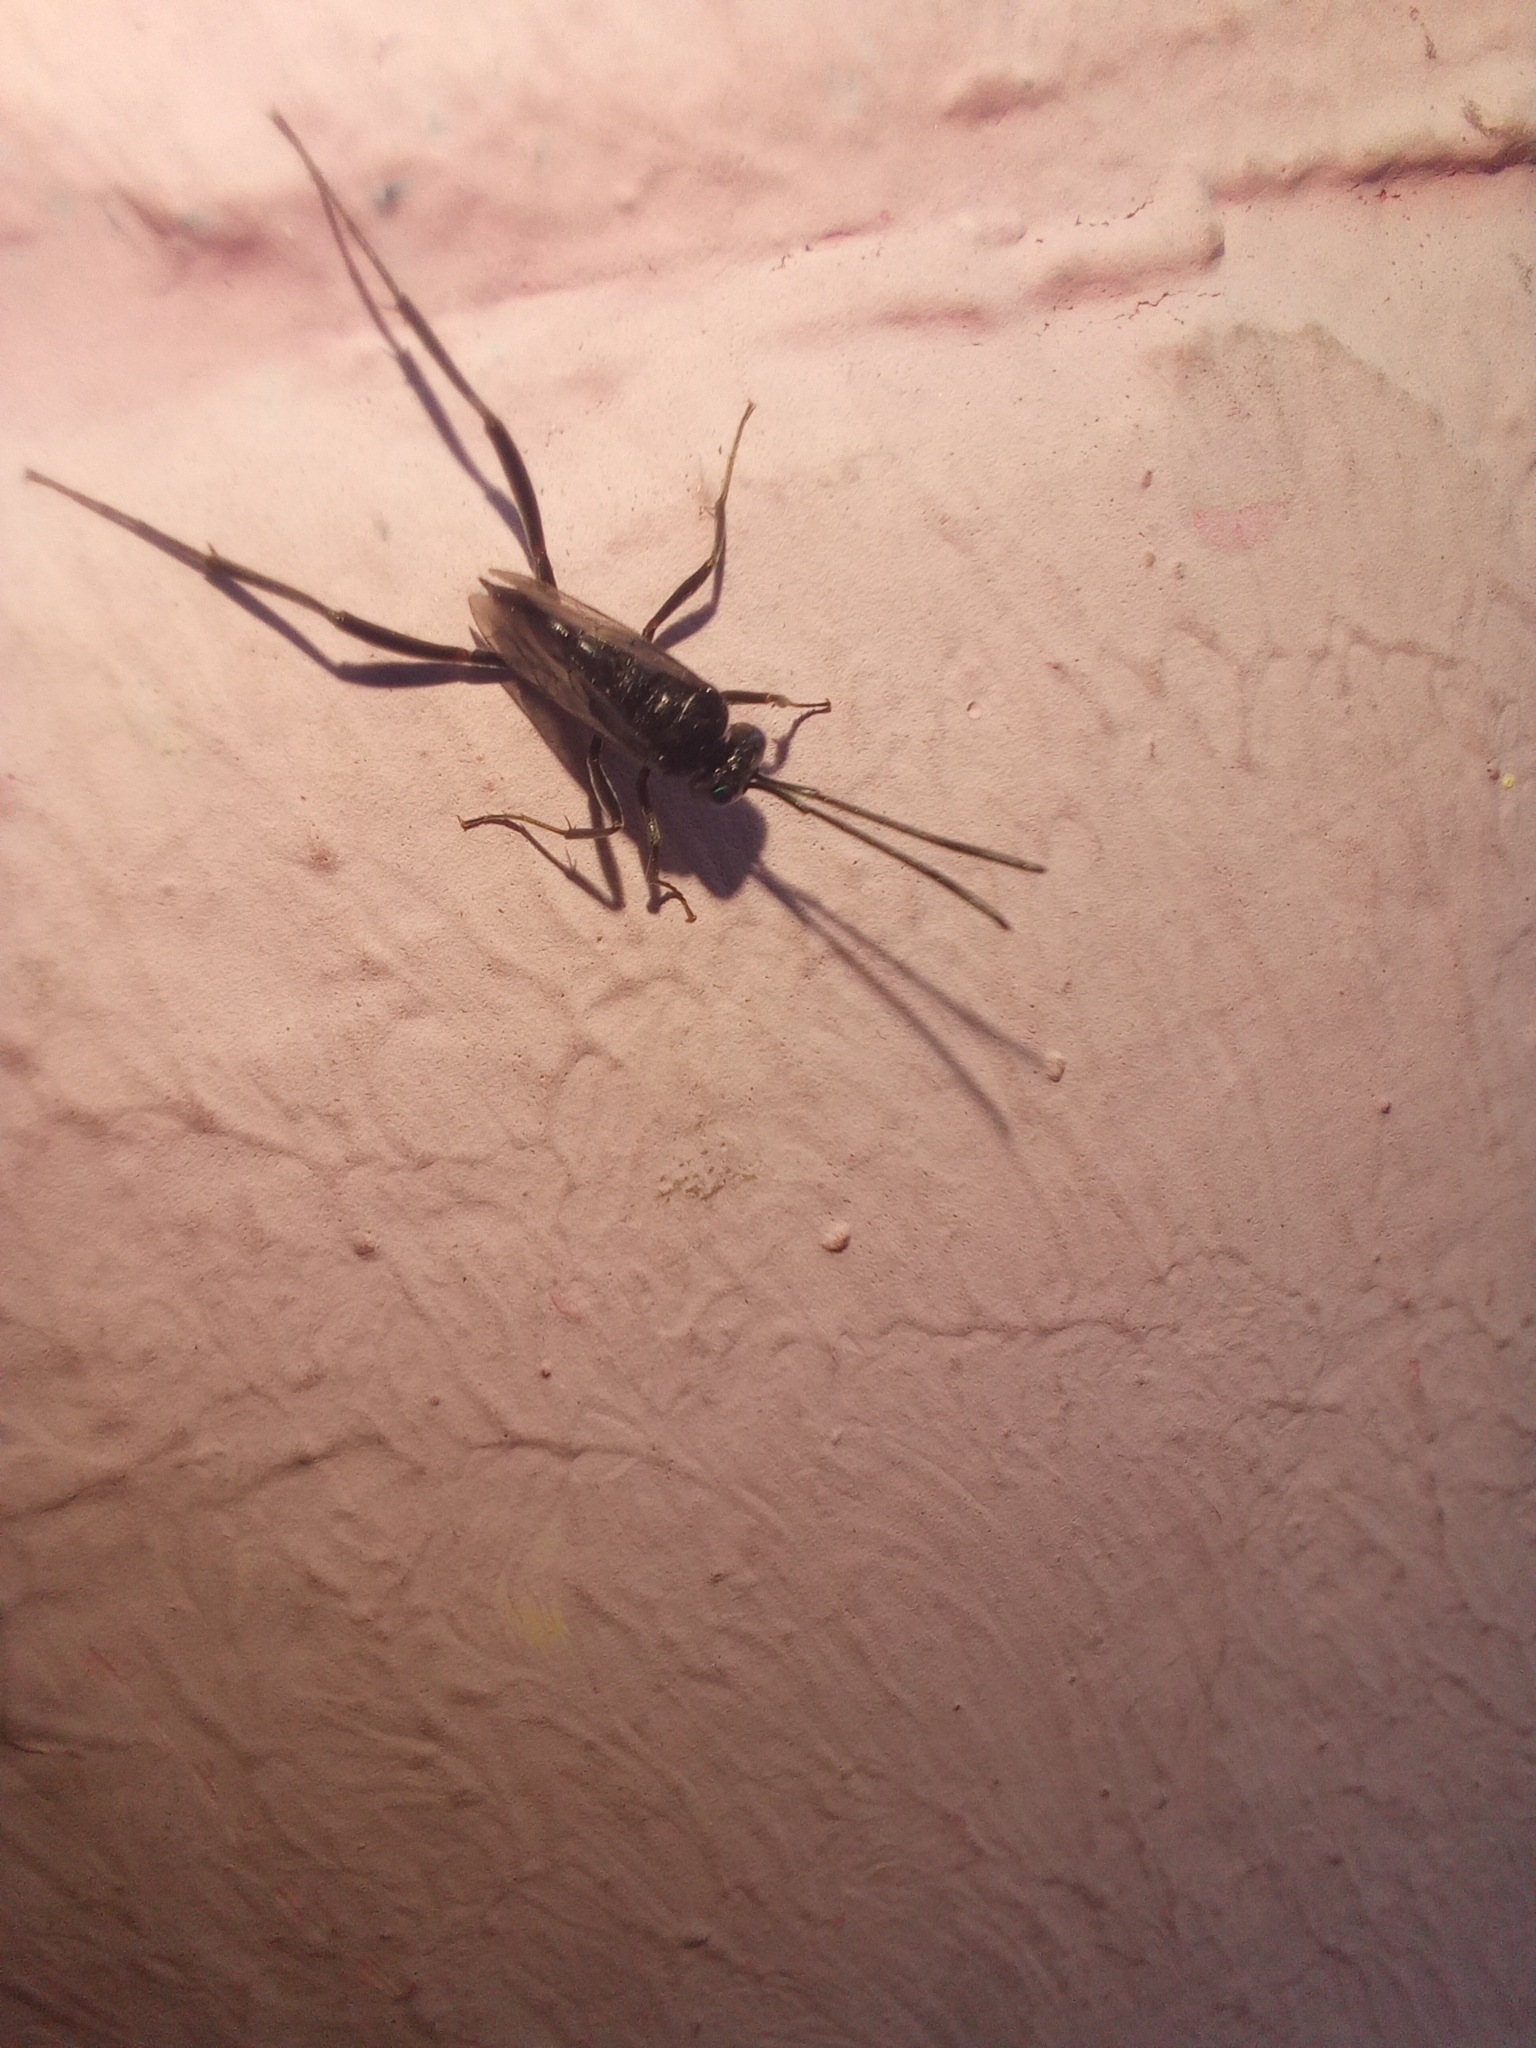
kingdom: Animalia
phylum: Arthropoda
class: Insecta
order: Hymenoptera
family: Evaniidae
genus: Evania
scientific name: Evania appendigaster
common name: Ensign wasp
